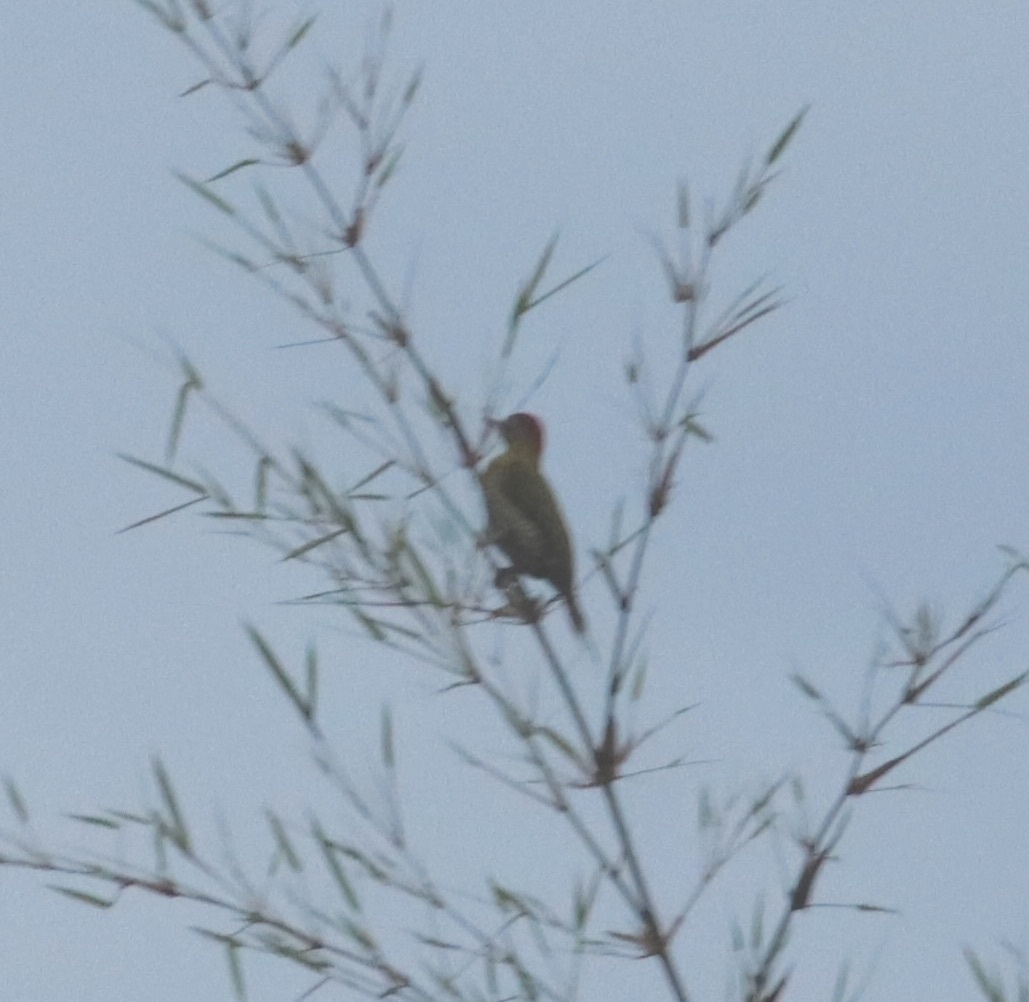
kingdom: Animalia
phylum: Chordata
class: Aves
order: Piciformes
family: Picidae
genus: Picus
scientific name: Picus vittatus
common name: Laced woodpecker
